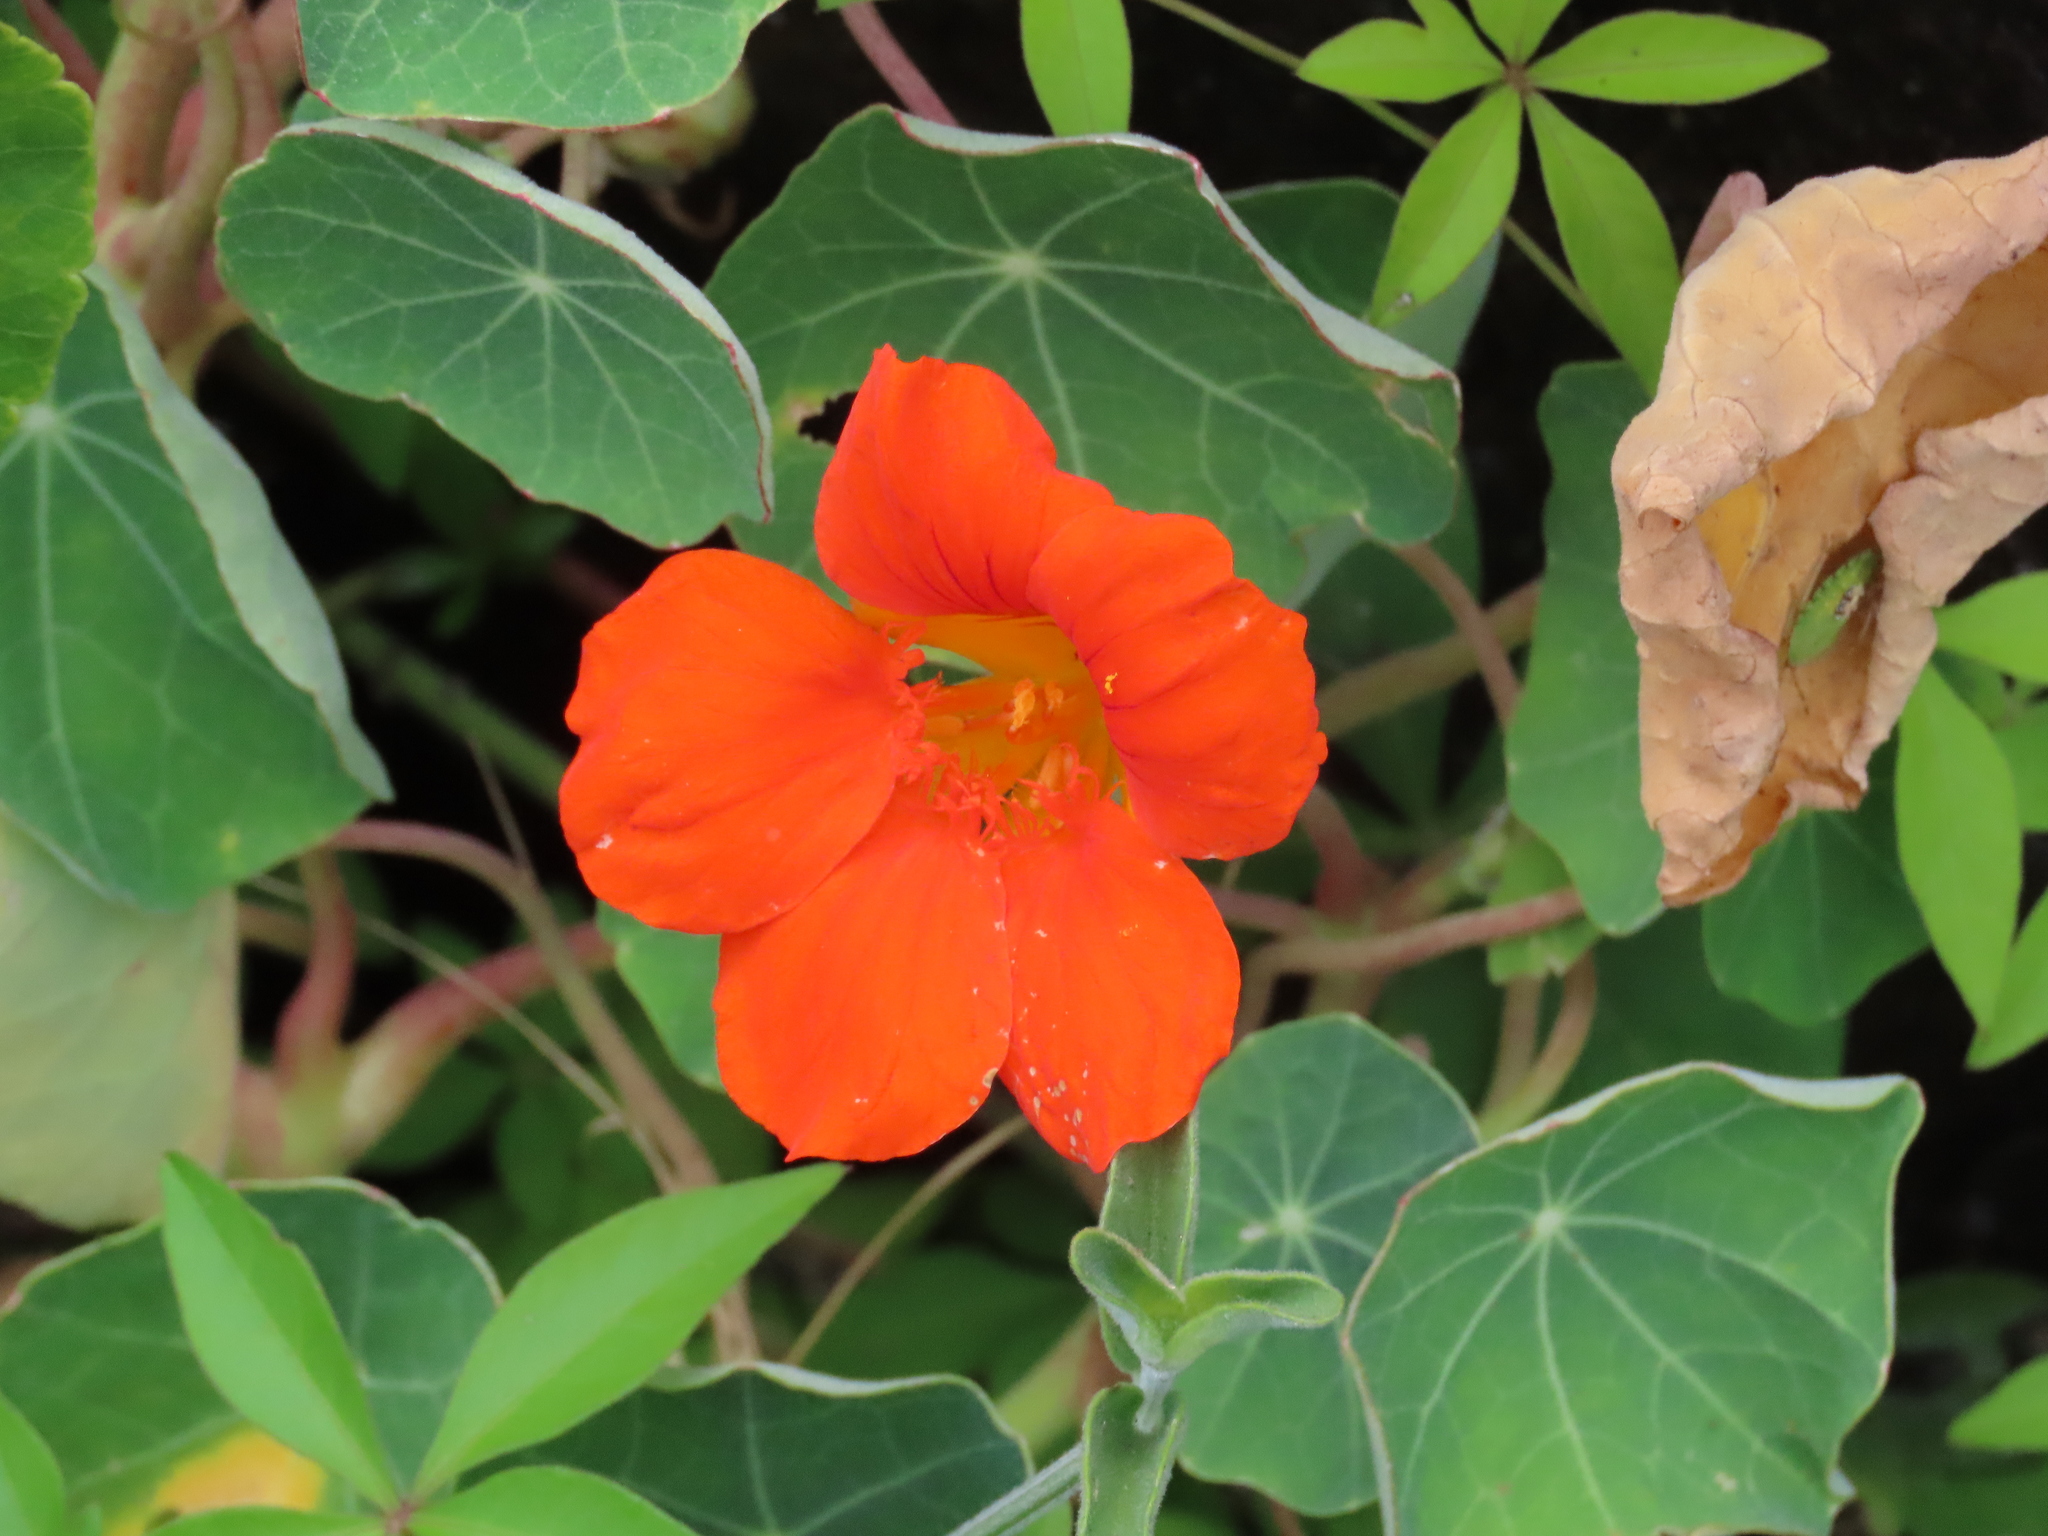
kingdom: Plantae
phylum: Tracheophyta
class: Magnoliopsida
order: Brassicales
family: Tropaeolaceae
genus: Tropaeolum
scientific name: Tropaeolum majus
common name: Nasturtium
